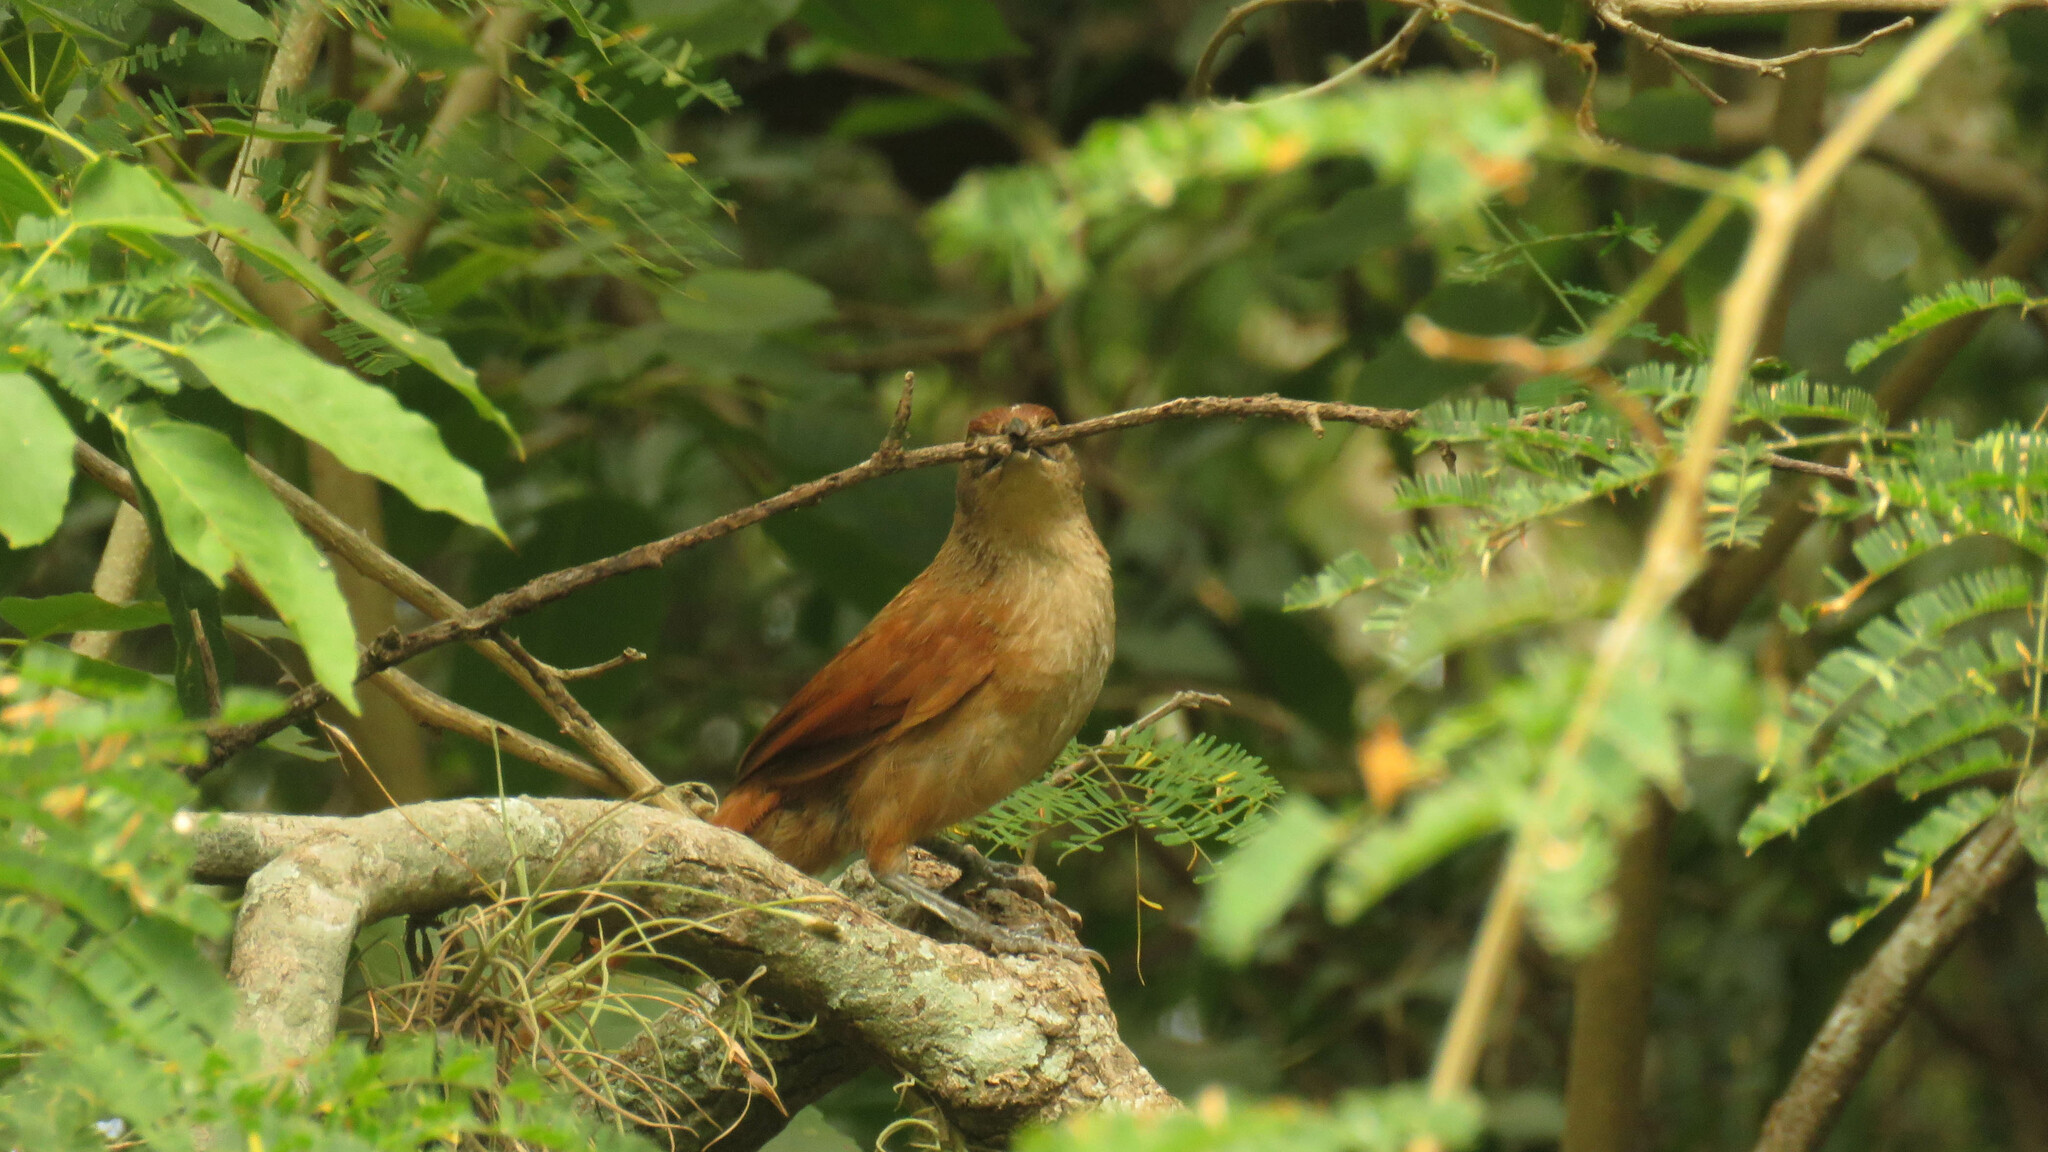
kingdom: Animalia
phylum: Chordata
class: Aves
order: Passeriformes
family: Furnariidae
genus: Phacellodomus
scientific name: Phacellodomus ruber
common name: Greater thornbird
